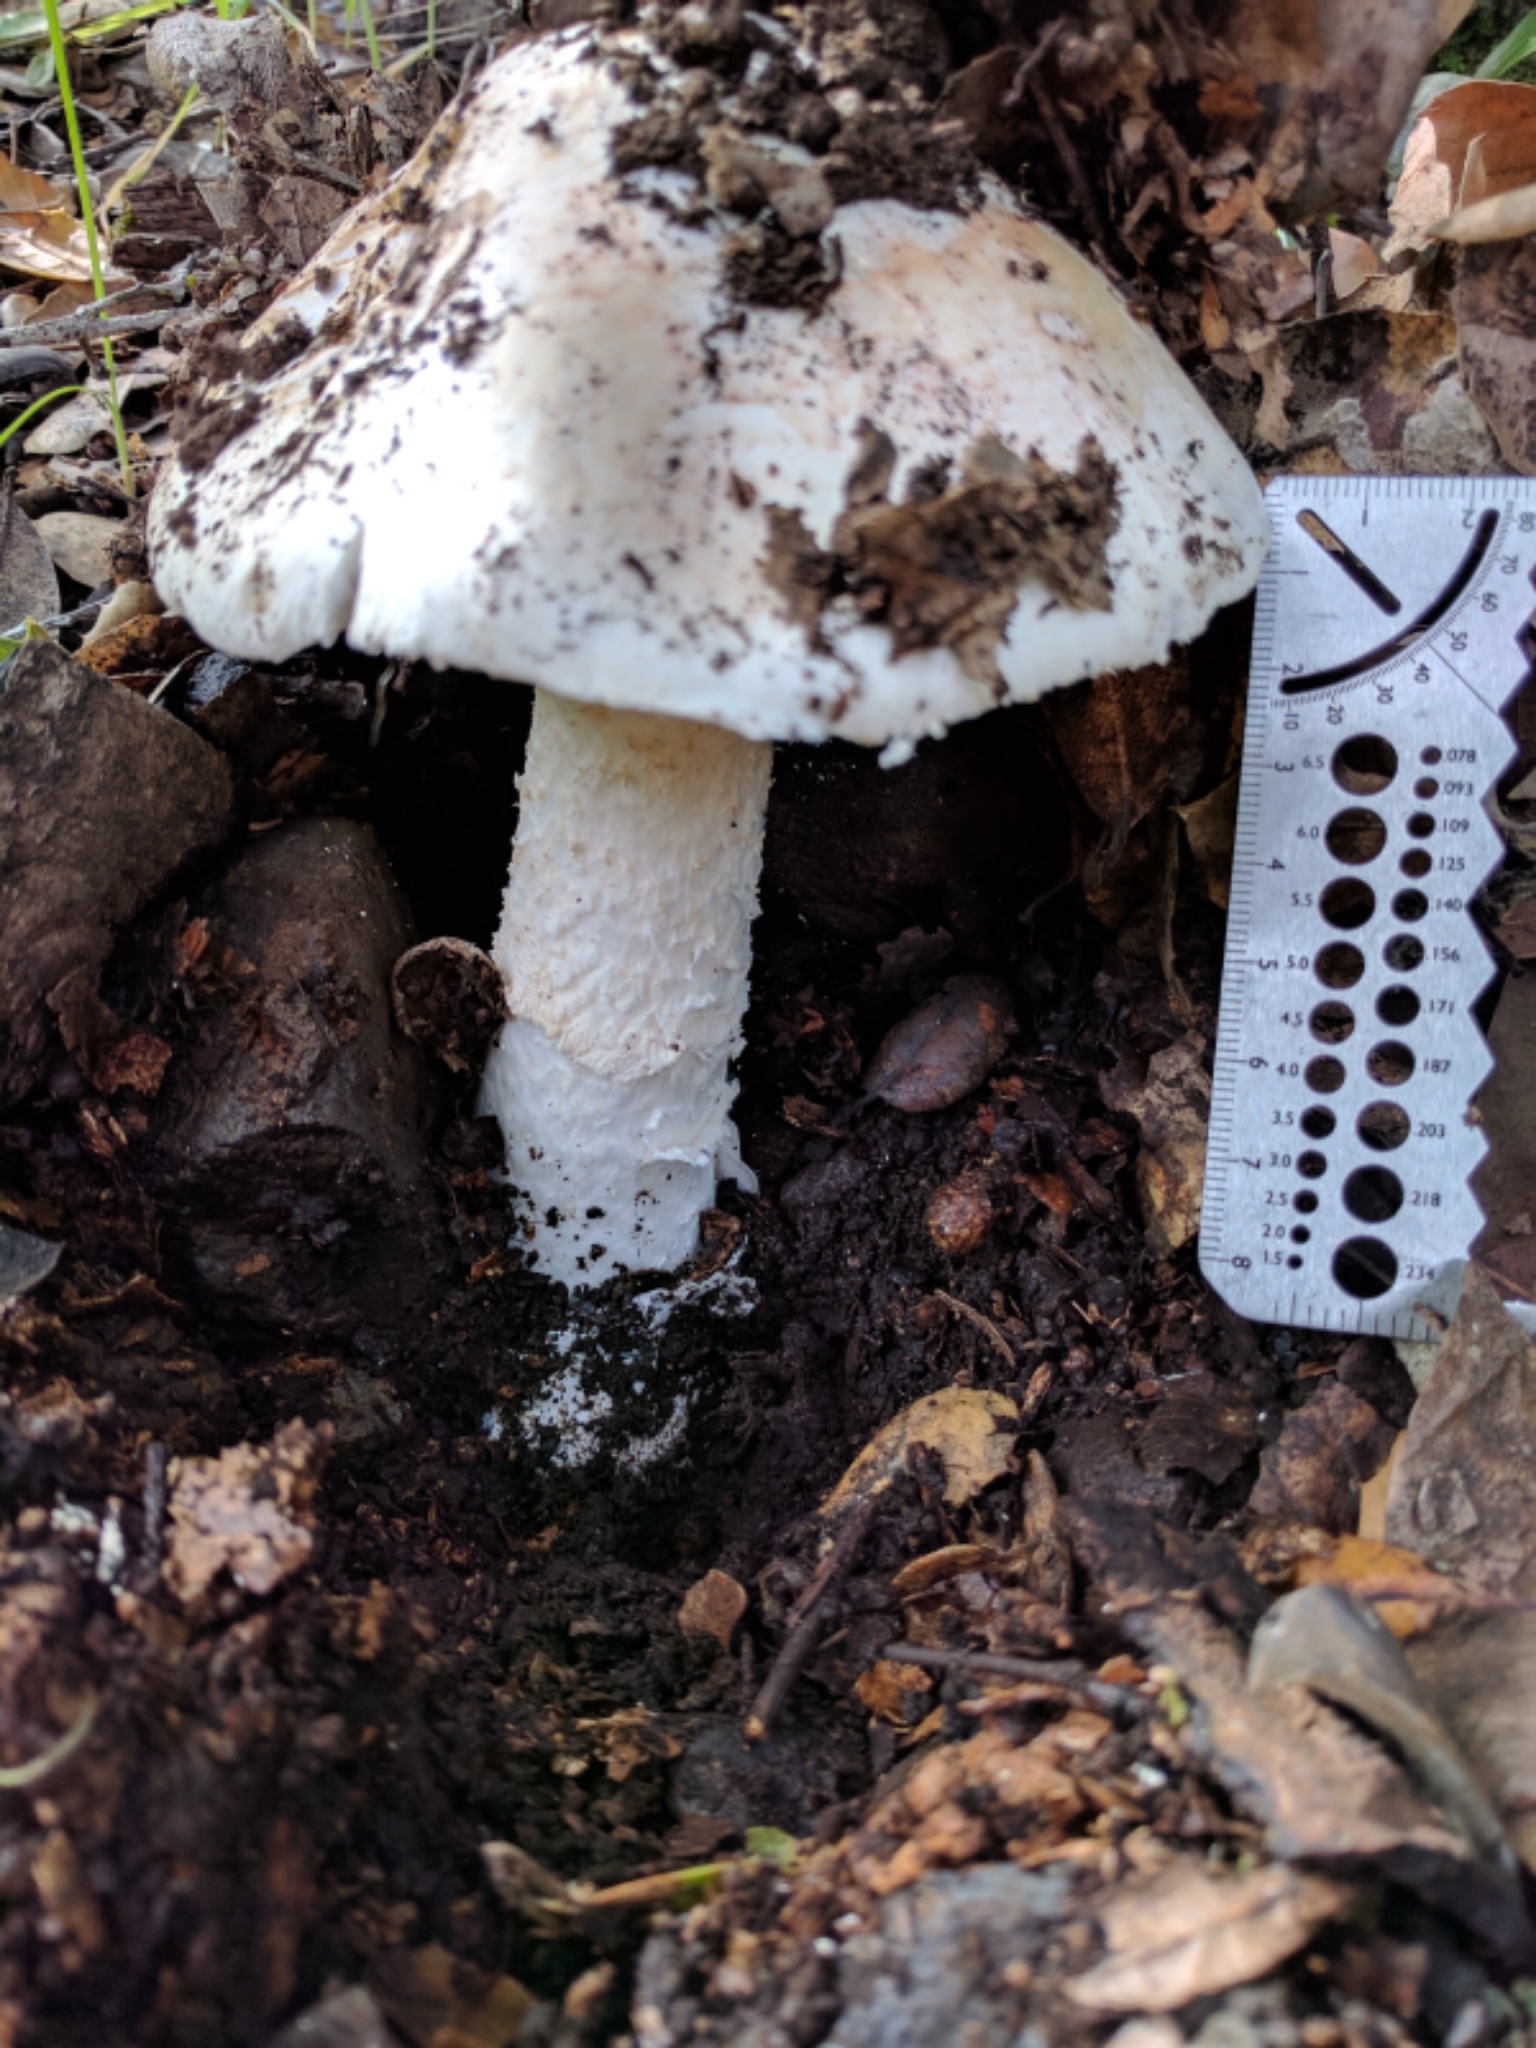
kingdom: Fungi
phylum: Basidiomycota
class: Agaricomycetes
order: Agaricales
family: Amanitaceae
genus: Amanita
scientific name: Amanita ocreata
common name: Western destroying angel
